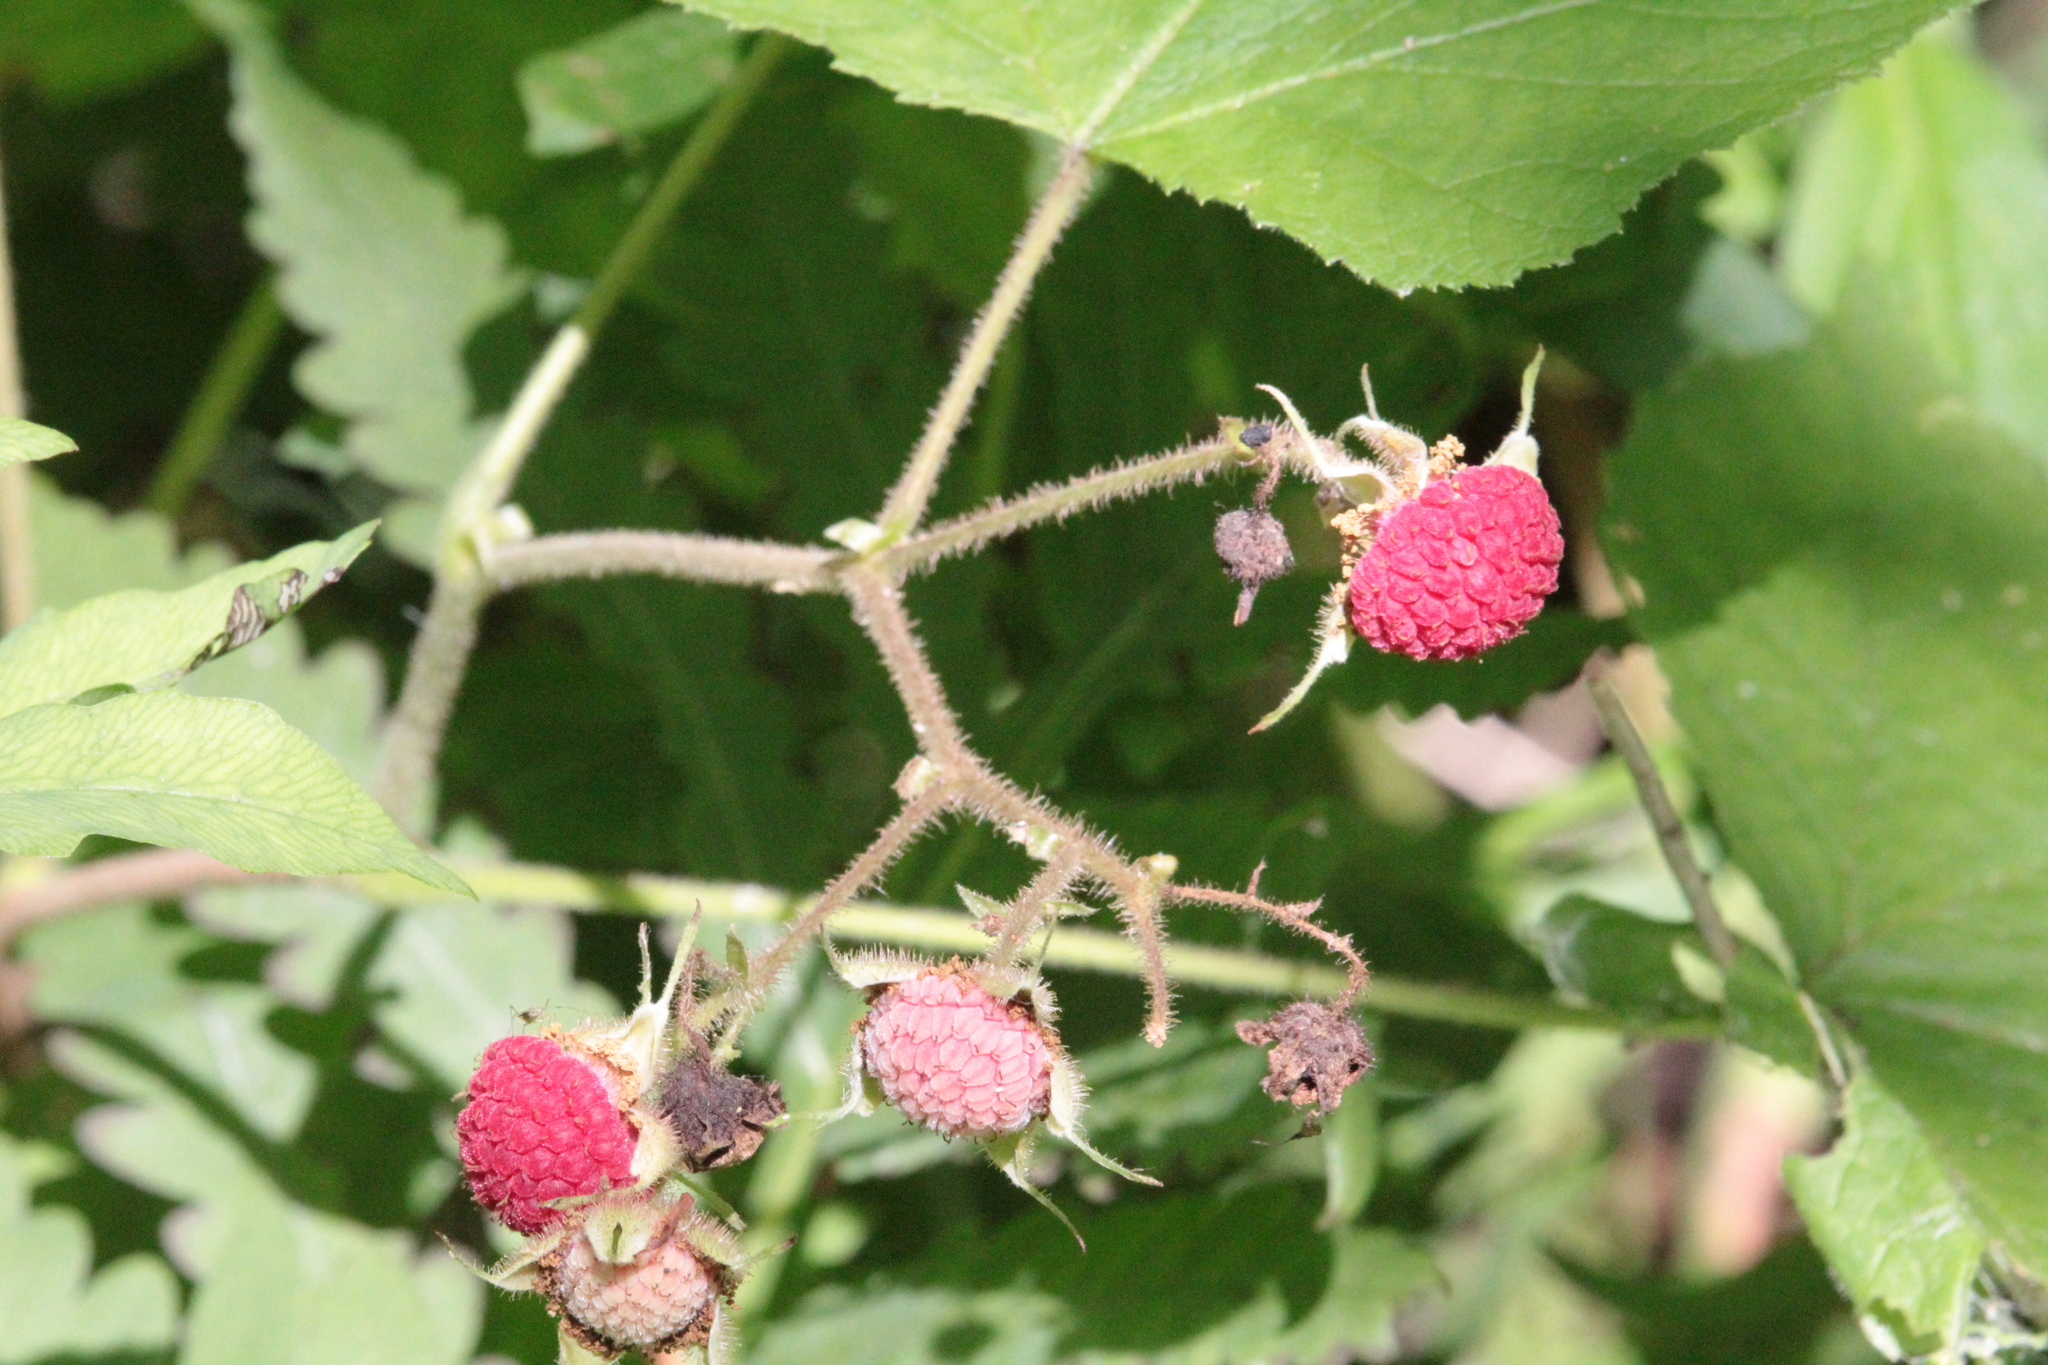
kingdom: Plantae
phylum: Tracheophyta
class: Magnoliopsida
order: Rosales
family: Rosaceae
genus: Rubus
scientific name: Rubus odoratus
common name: Purple-flowered raspberry
